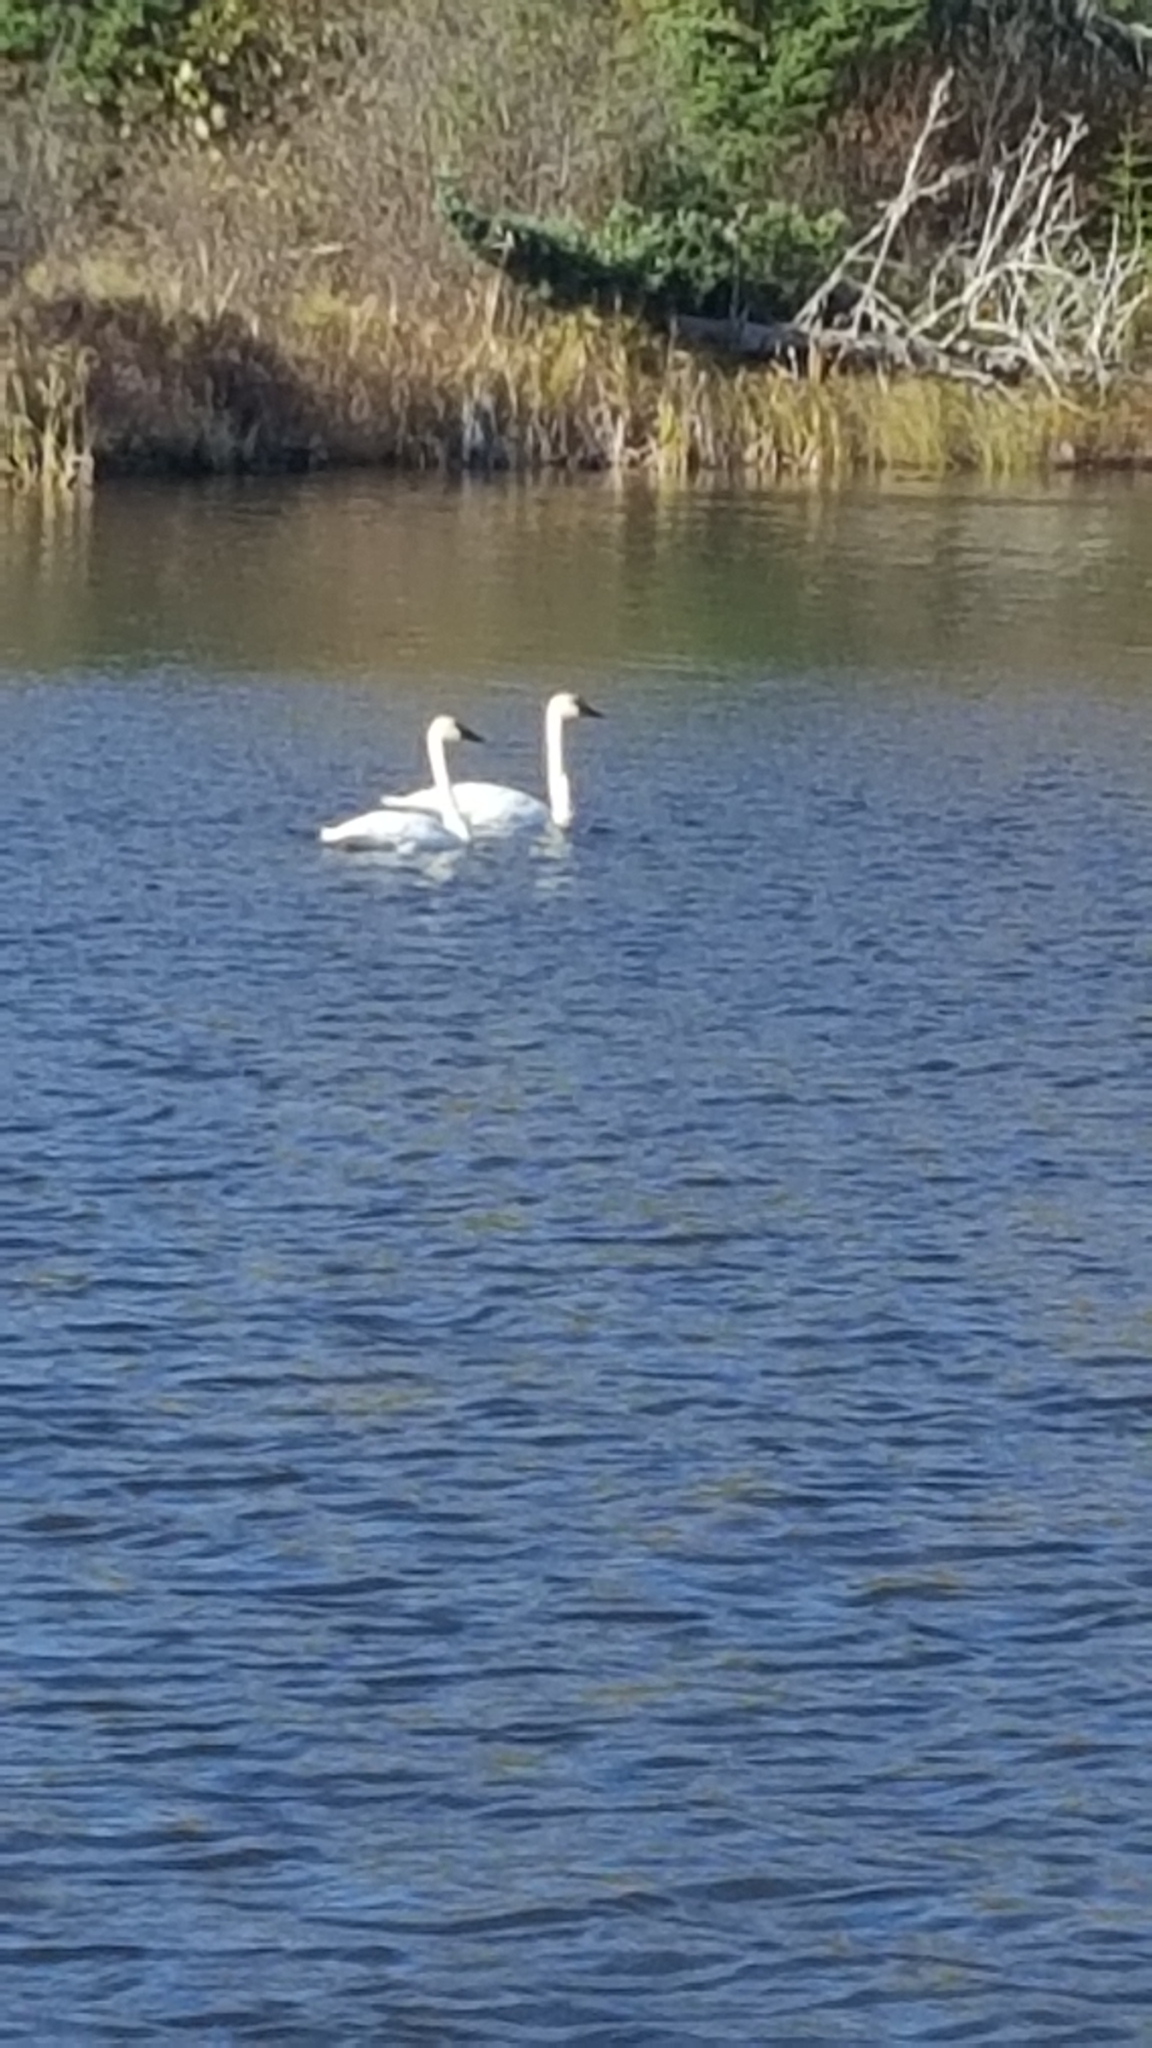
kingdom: Animalia
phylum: Chordata
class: Aves
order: Anseriformes
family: Anatidae
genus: Cygnus
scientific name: Cygnus buccinator
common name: Trumpeter swan
